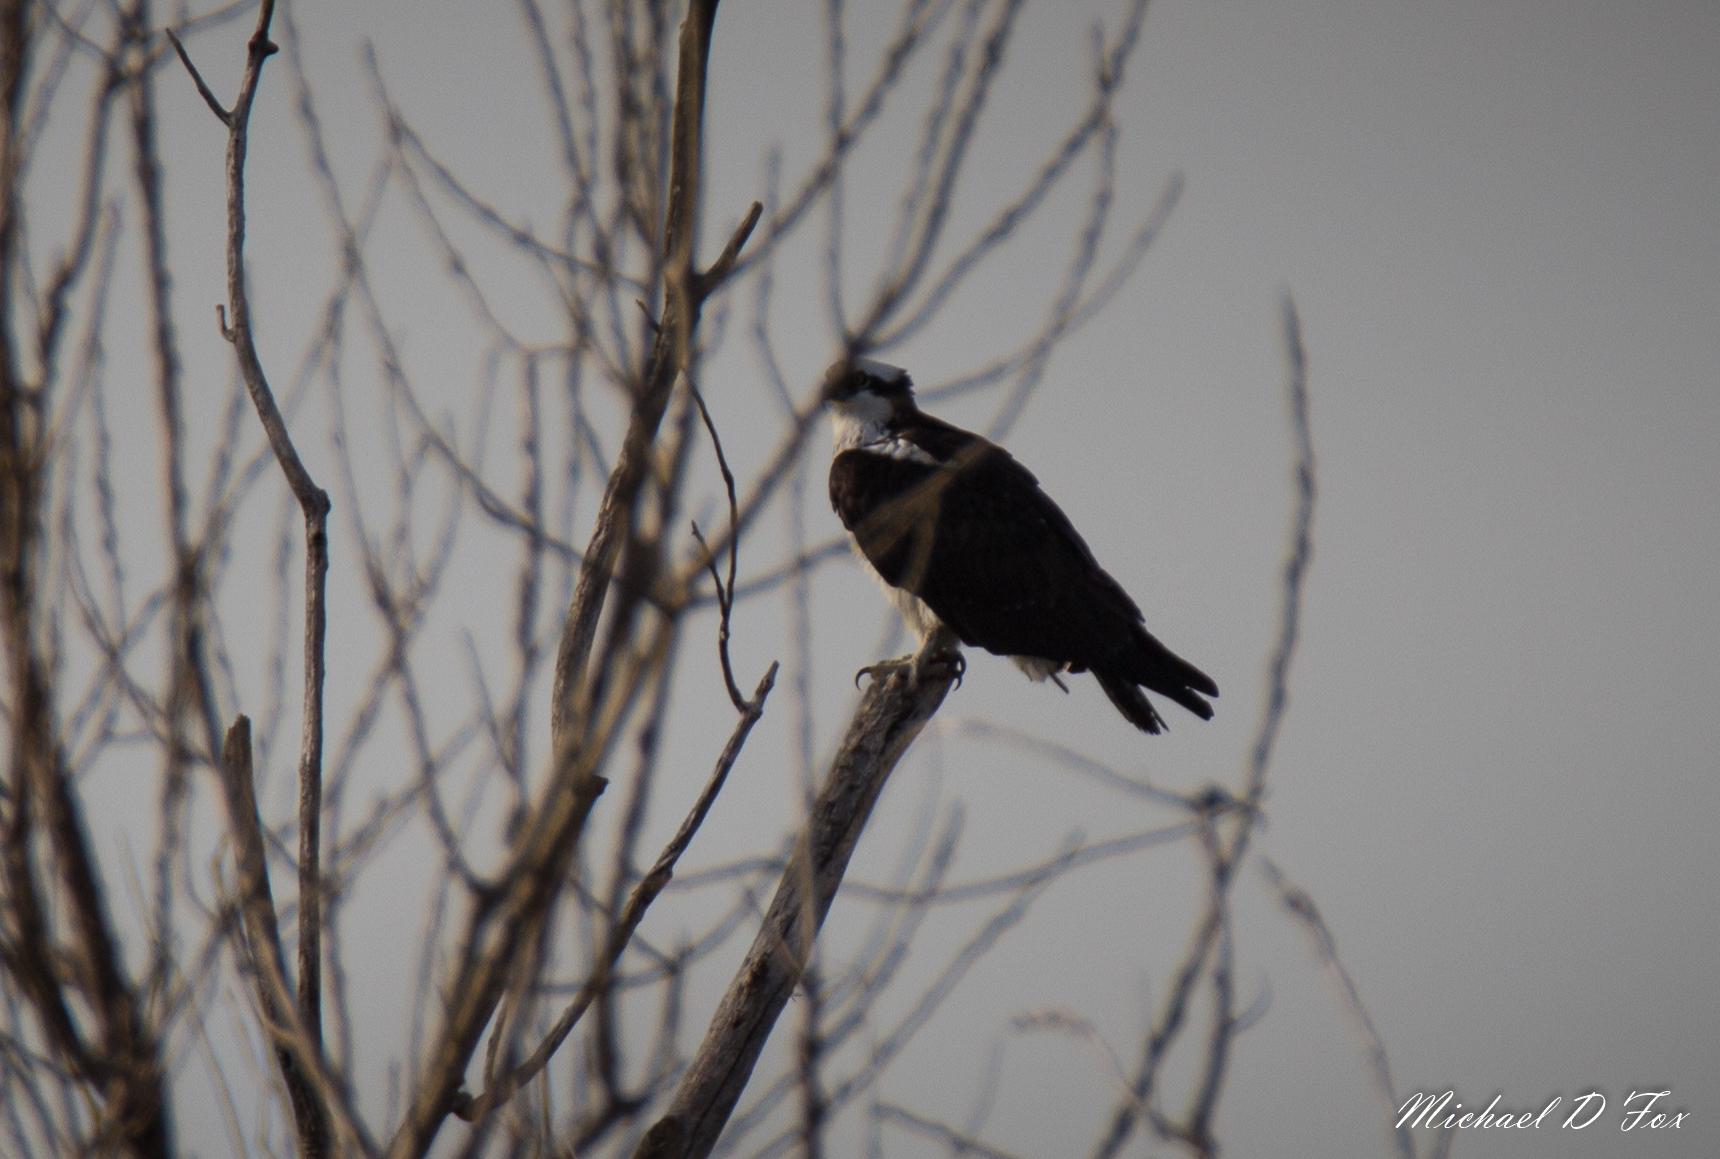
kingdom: Animalia
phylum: Chordata
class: Aves
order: Accipitriformes
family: Pandionidae
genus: Pandion
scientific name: Pandion haliaetus
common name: Osprey
